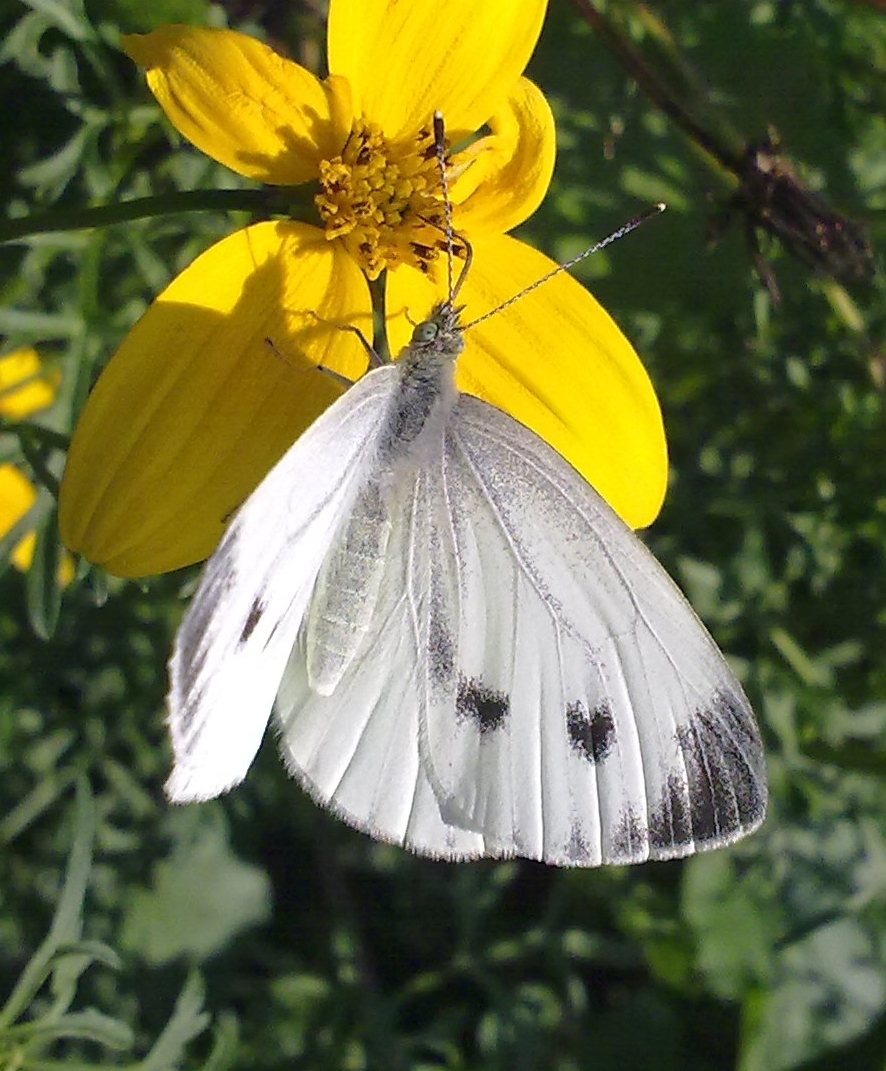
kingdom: Animalia
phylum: Arthropoda
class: Insecta
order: Lepidoptera
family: Pieridae
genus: Pieris
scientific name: Pieris napi
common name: Green-veined white
